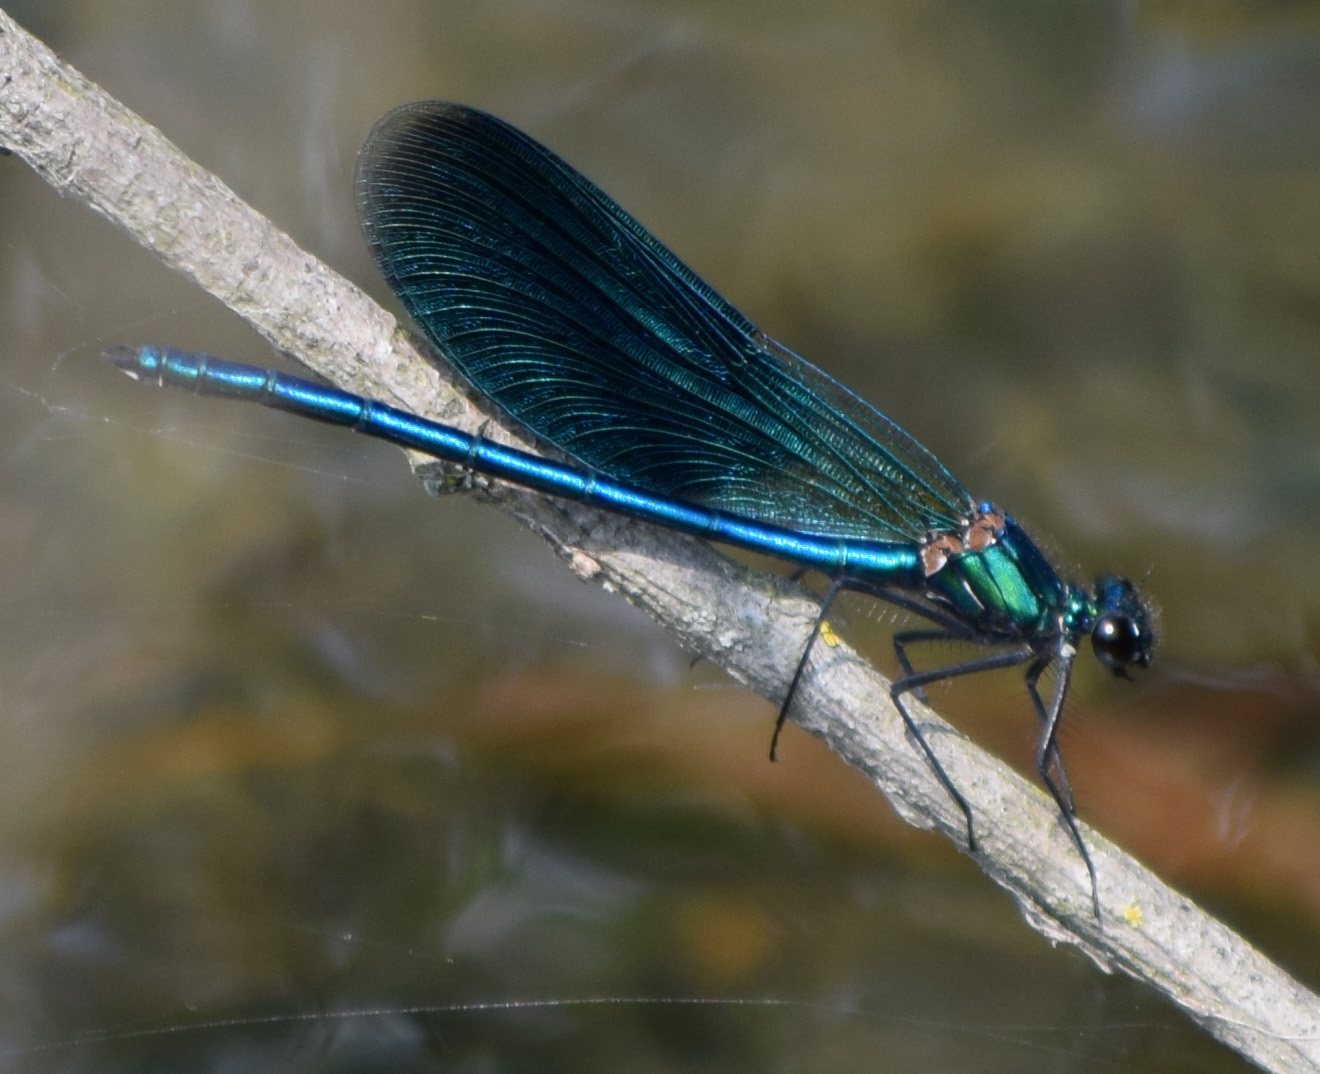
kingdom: Animalia
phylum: Arthropoda
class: Insecta
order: Odonata
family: Calopterygidae
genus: Calopteryx
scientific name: Calopteryx splendens
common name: Banded demoiselle
